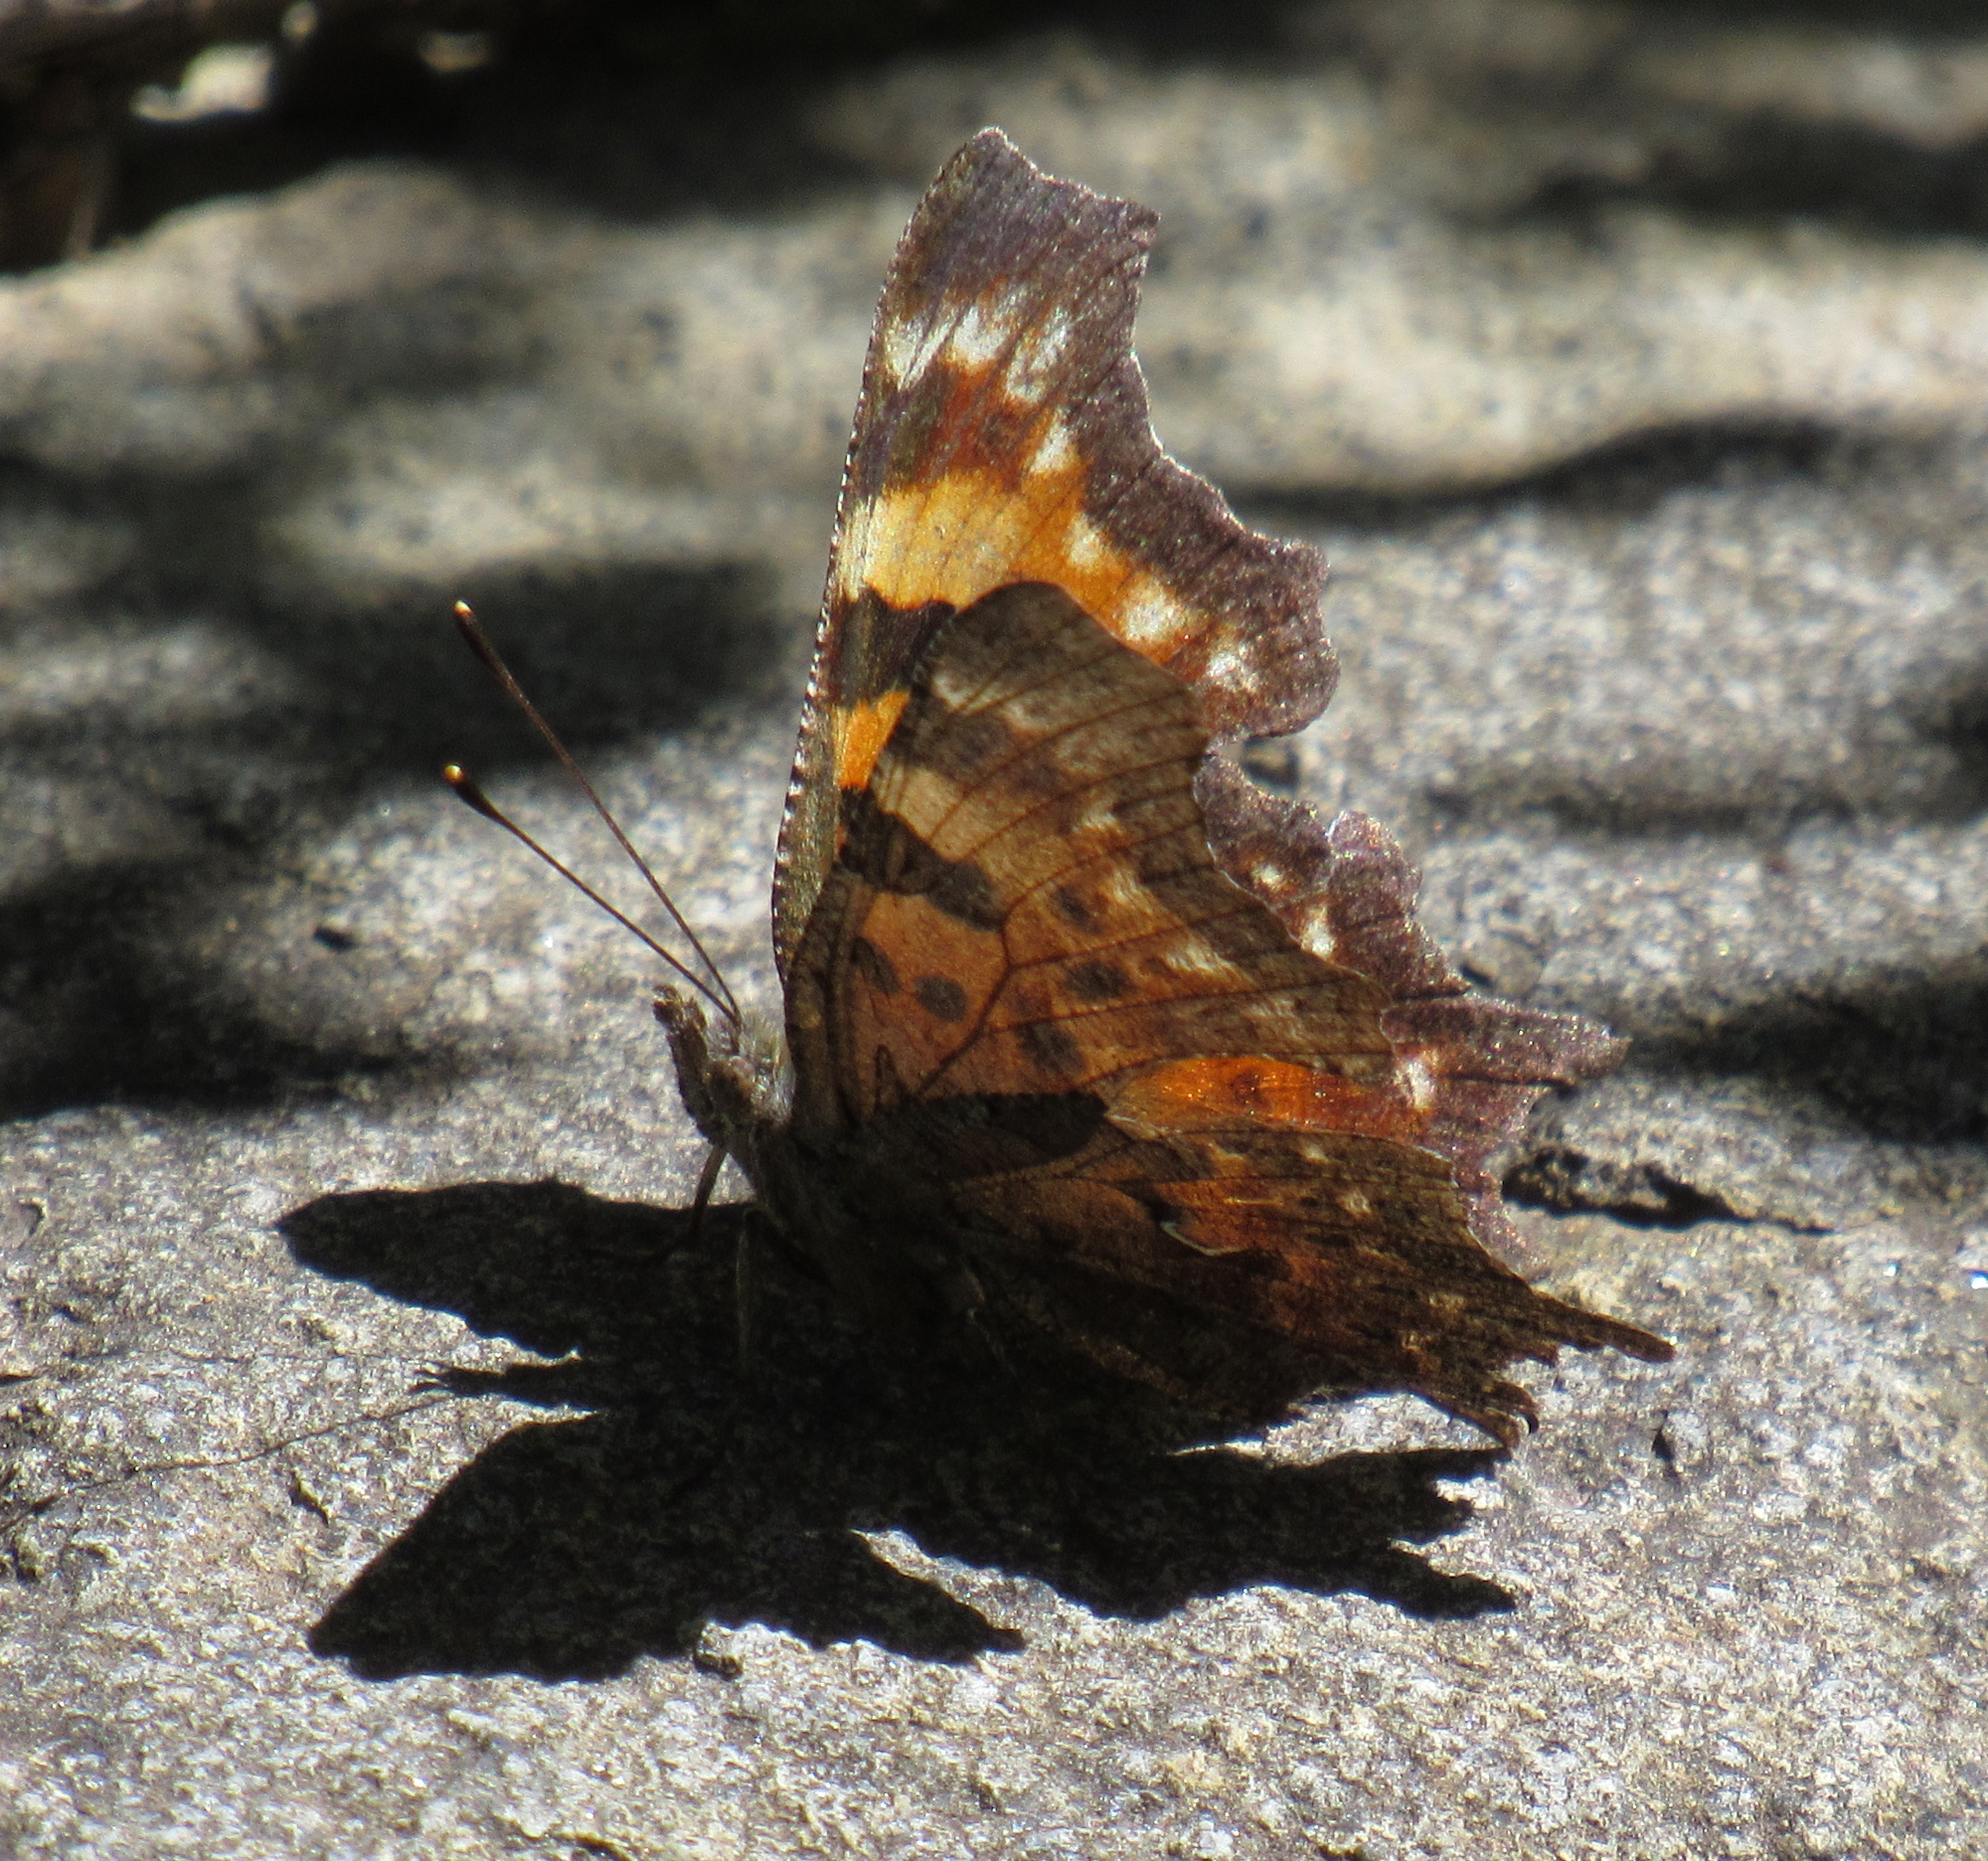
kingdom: Animalia
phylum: Arthropoda
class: Insecta
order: Lepidoptera
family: Nymphalidae
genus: Polygonia
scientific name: Polygonia faunus
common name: Green comma
